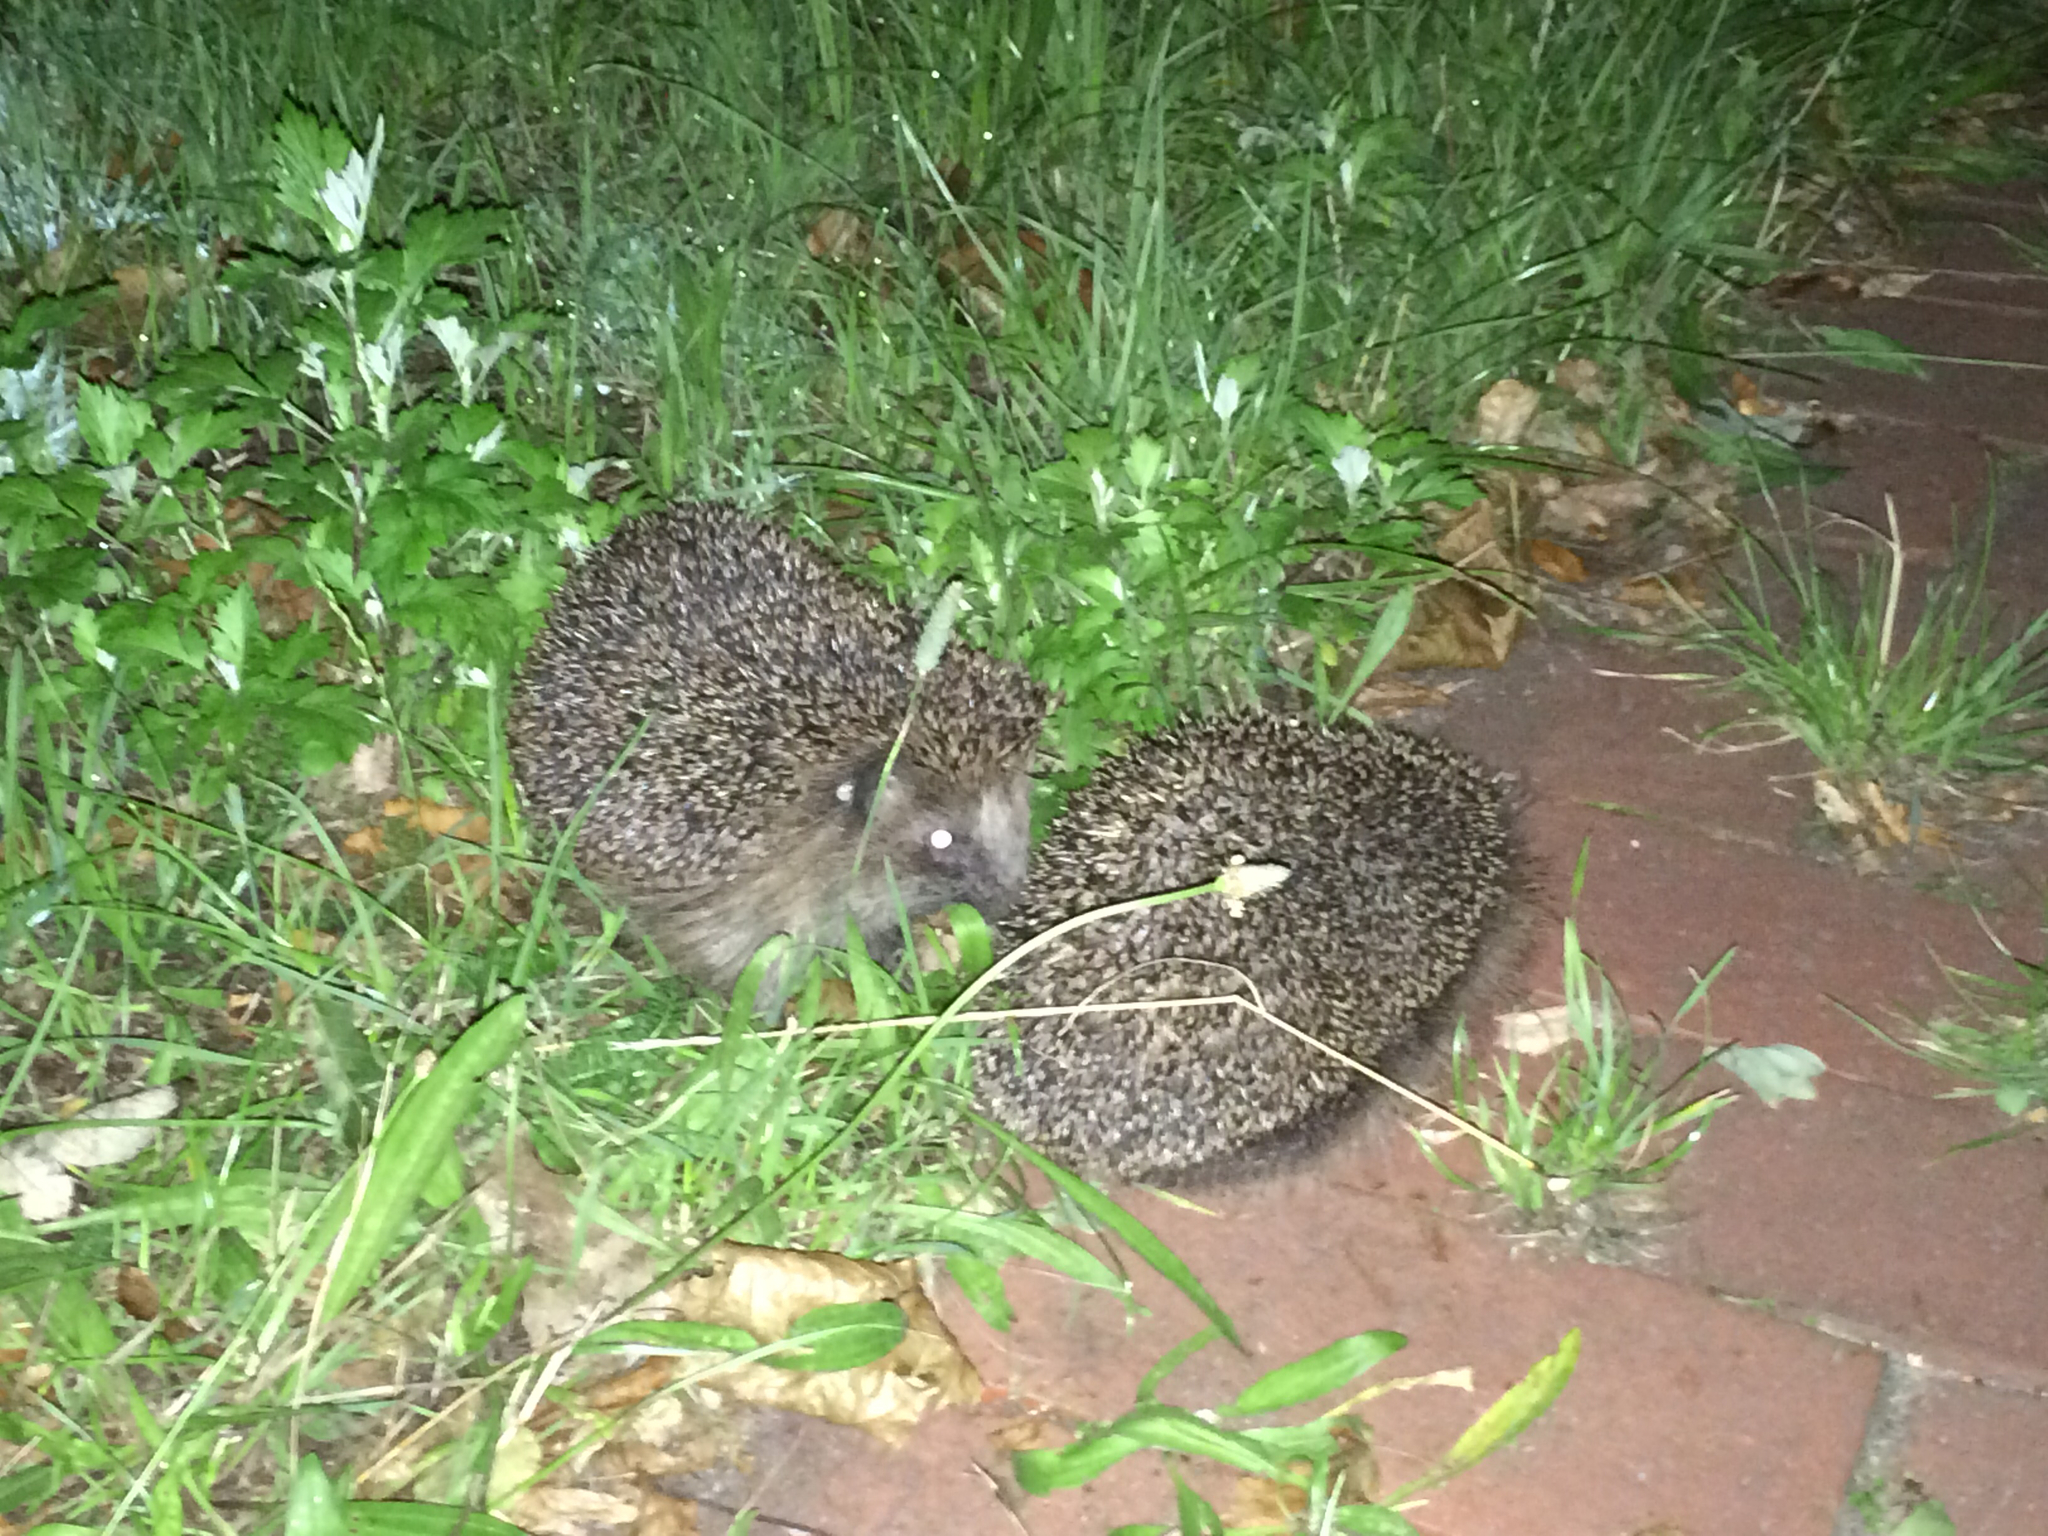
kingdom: Animalia
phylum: Chordata
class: Mammalia
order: Erinaceomorpha
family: Erinaceidae
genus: Erinaceus
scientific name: Erinaceus europaeus
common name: West european hedgehog
